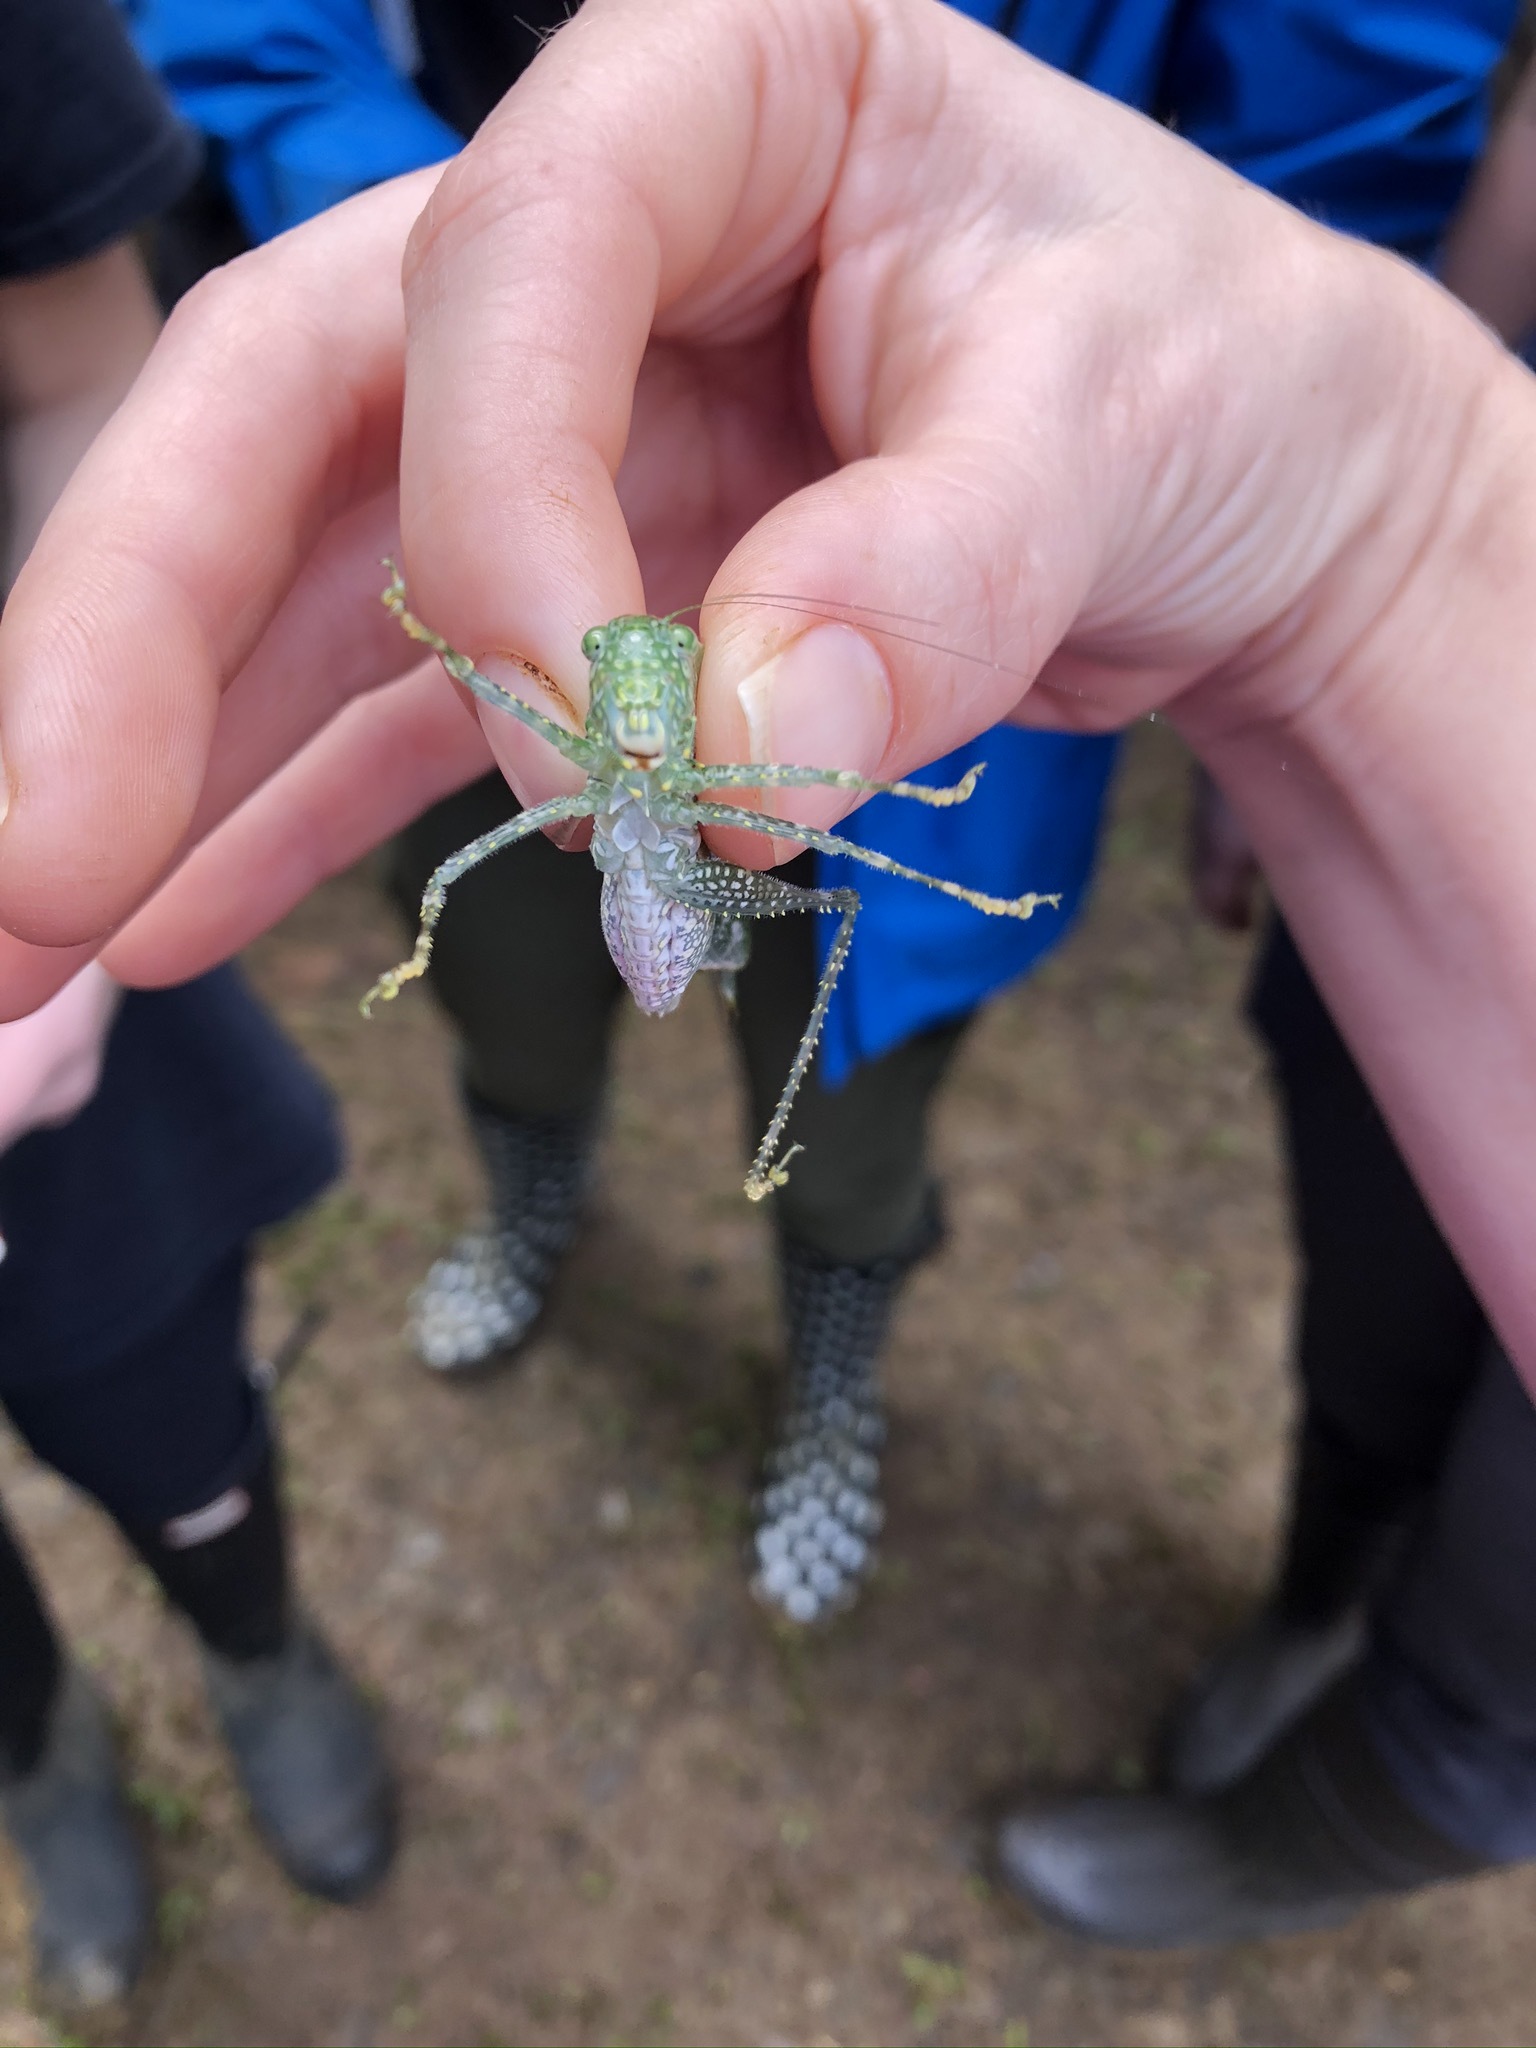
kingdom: Animalia
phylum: Arthropoda
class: Insecta
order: Orthoptera
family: Tettigoniidae
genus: Anapolisia
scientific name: Anapolisia maculosa
